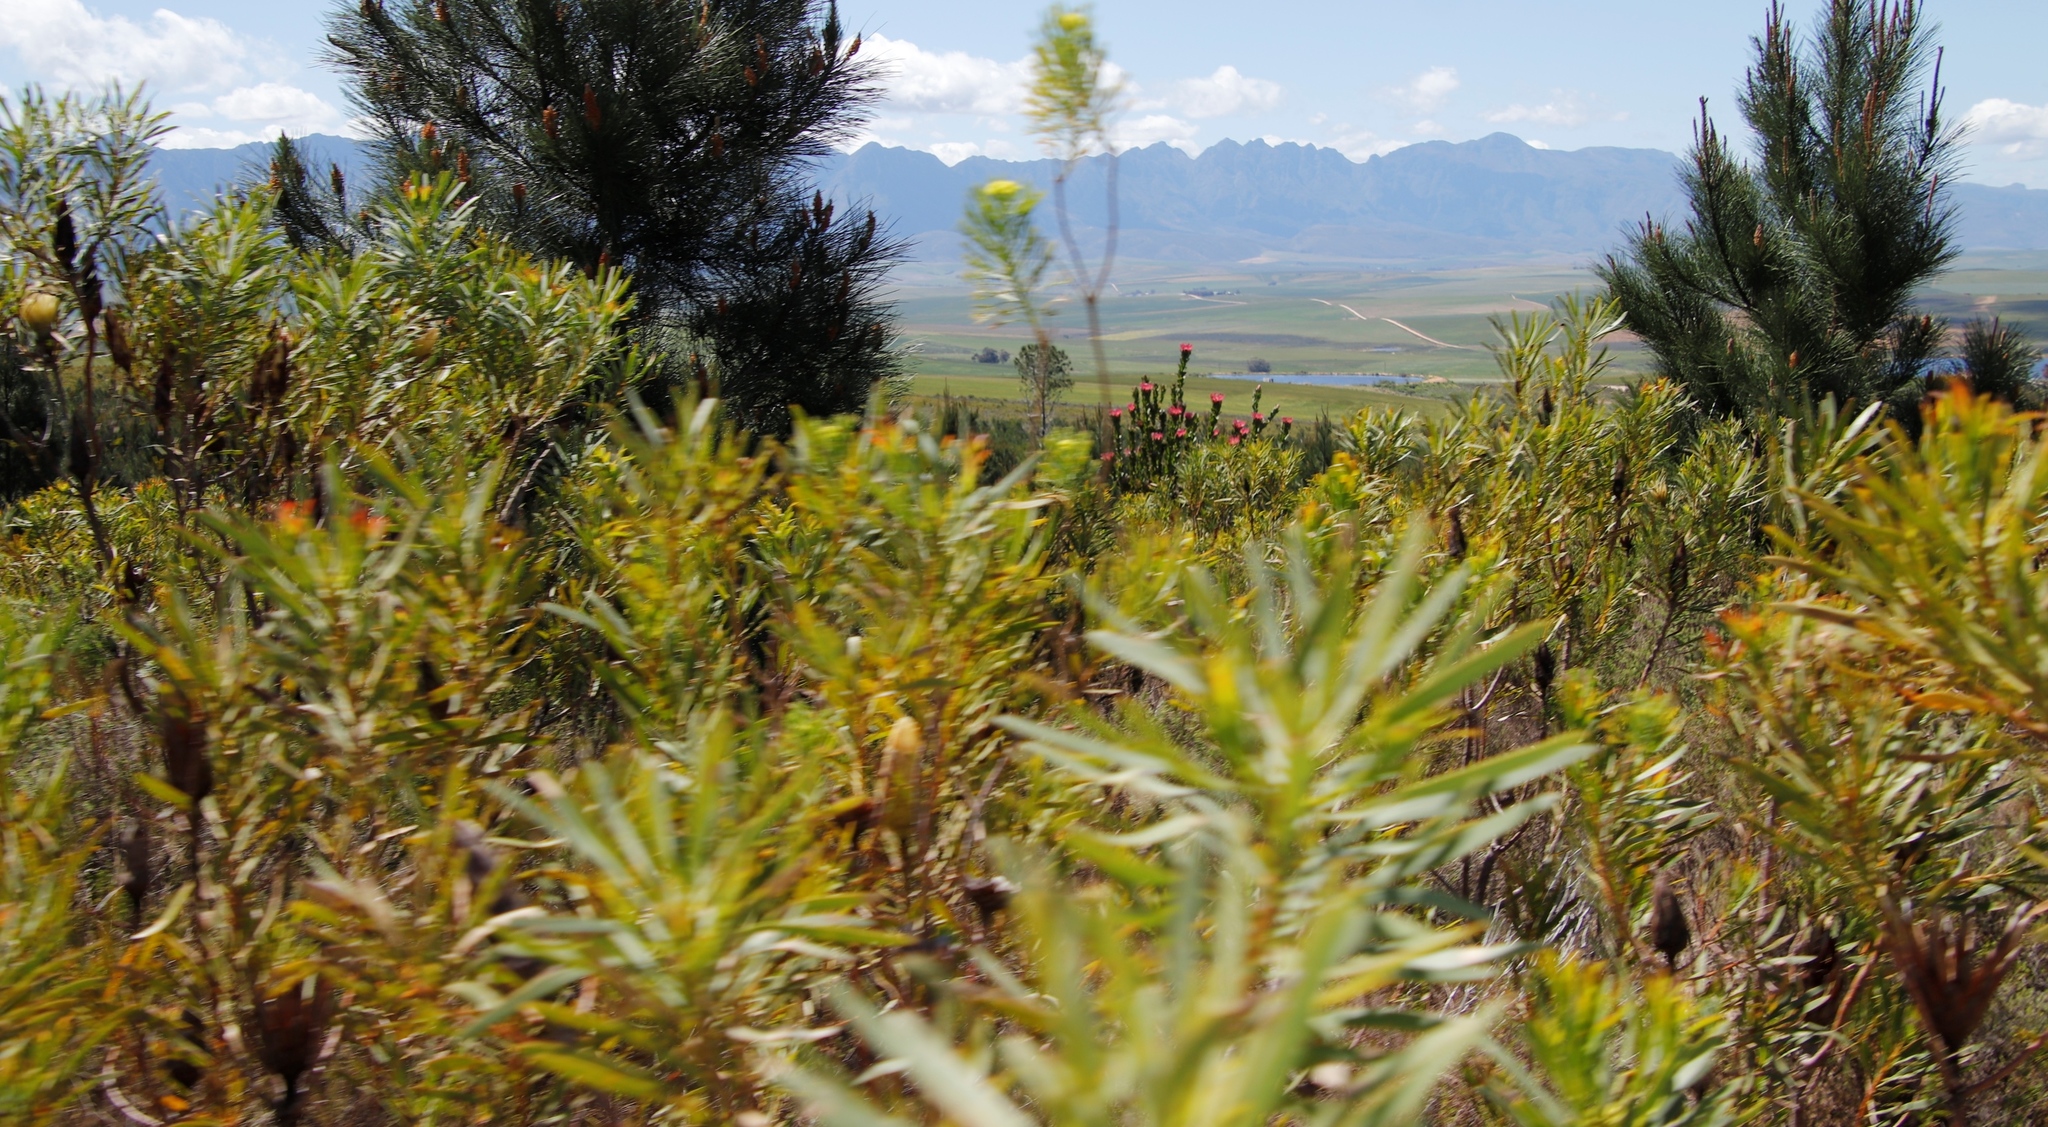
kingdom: Plantae
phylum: Tracheophyta
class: Magnoliopsida
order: Proteales
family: Proteaceae
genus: Protea
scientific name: Protea compacta
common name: Bot river protea
